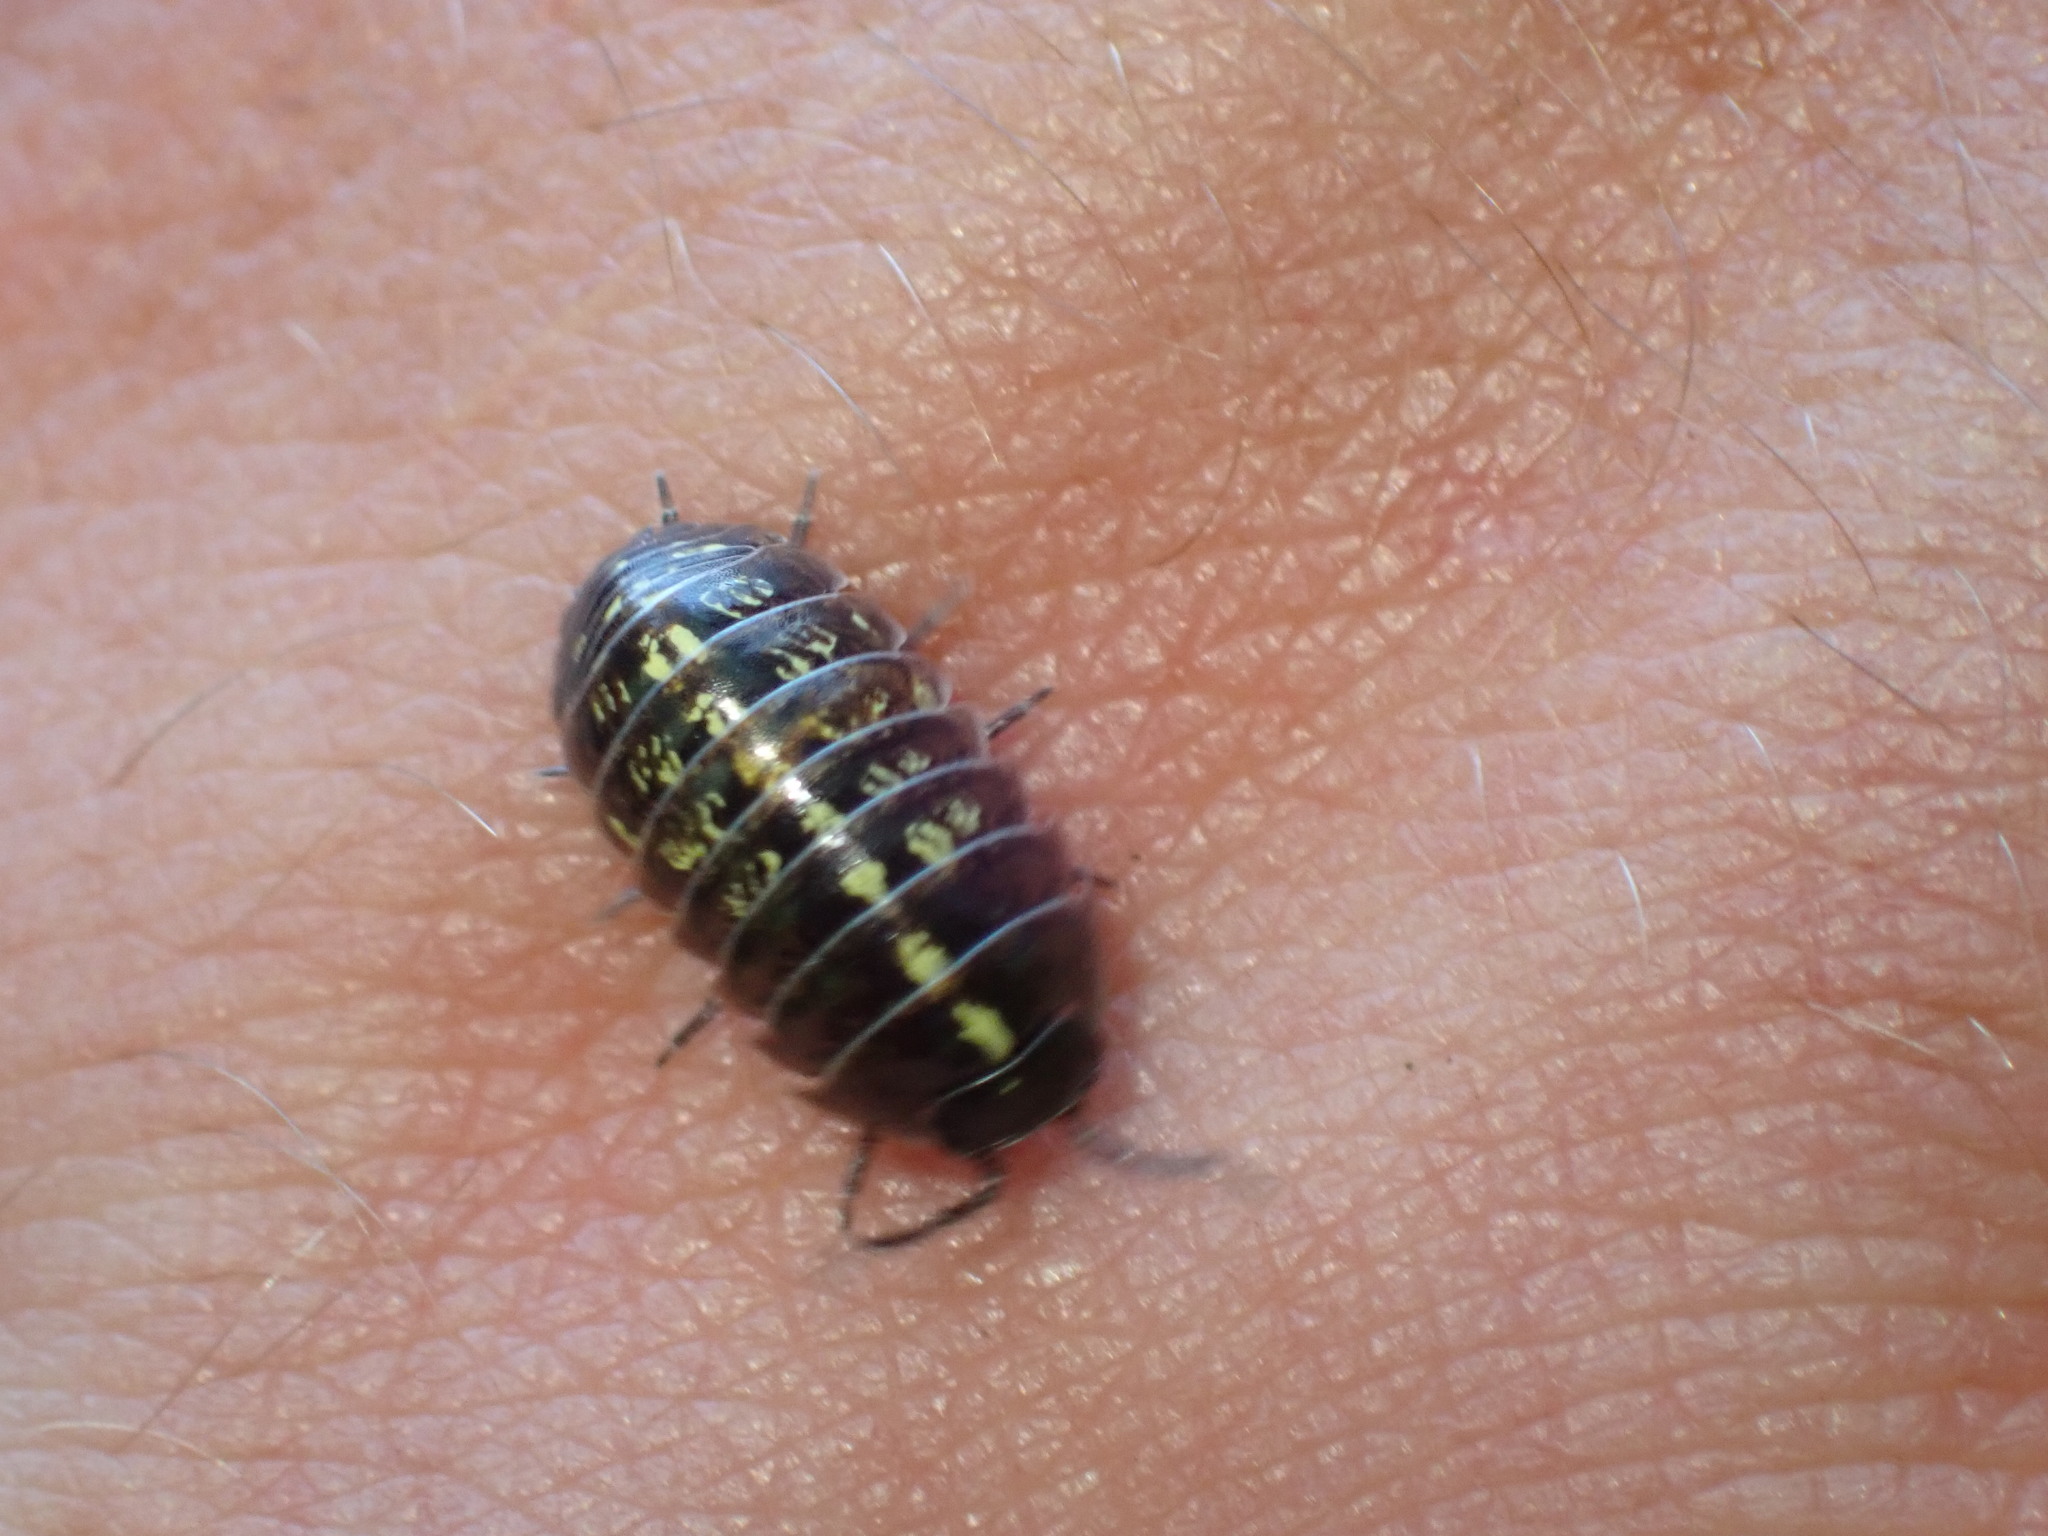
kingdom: Animalia
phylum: Arthropoda
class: Malacostraca
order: Isopoda
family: Armadillidiidae
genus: Armadillidium
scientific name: Armadillidium vulgare
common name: Common pill woodlouse
